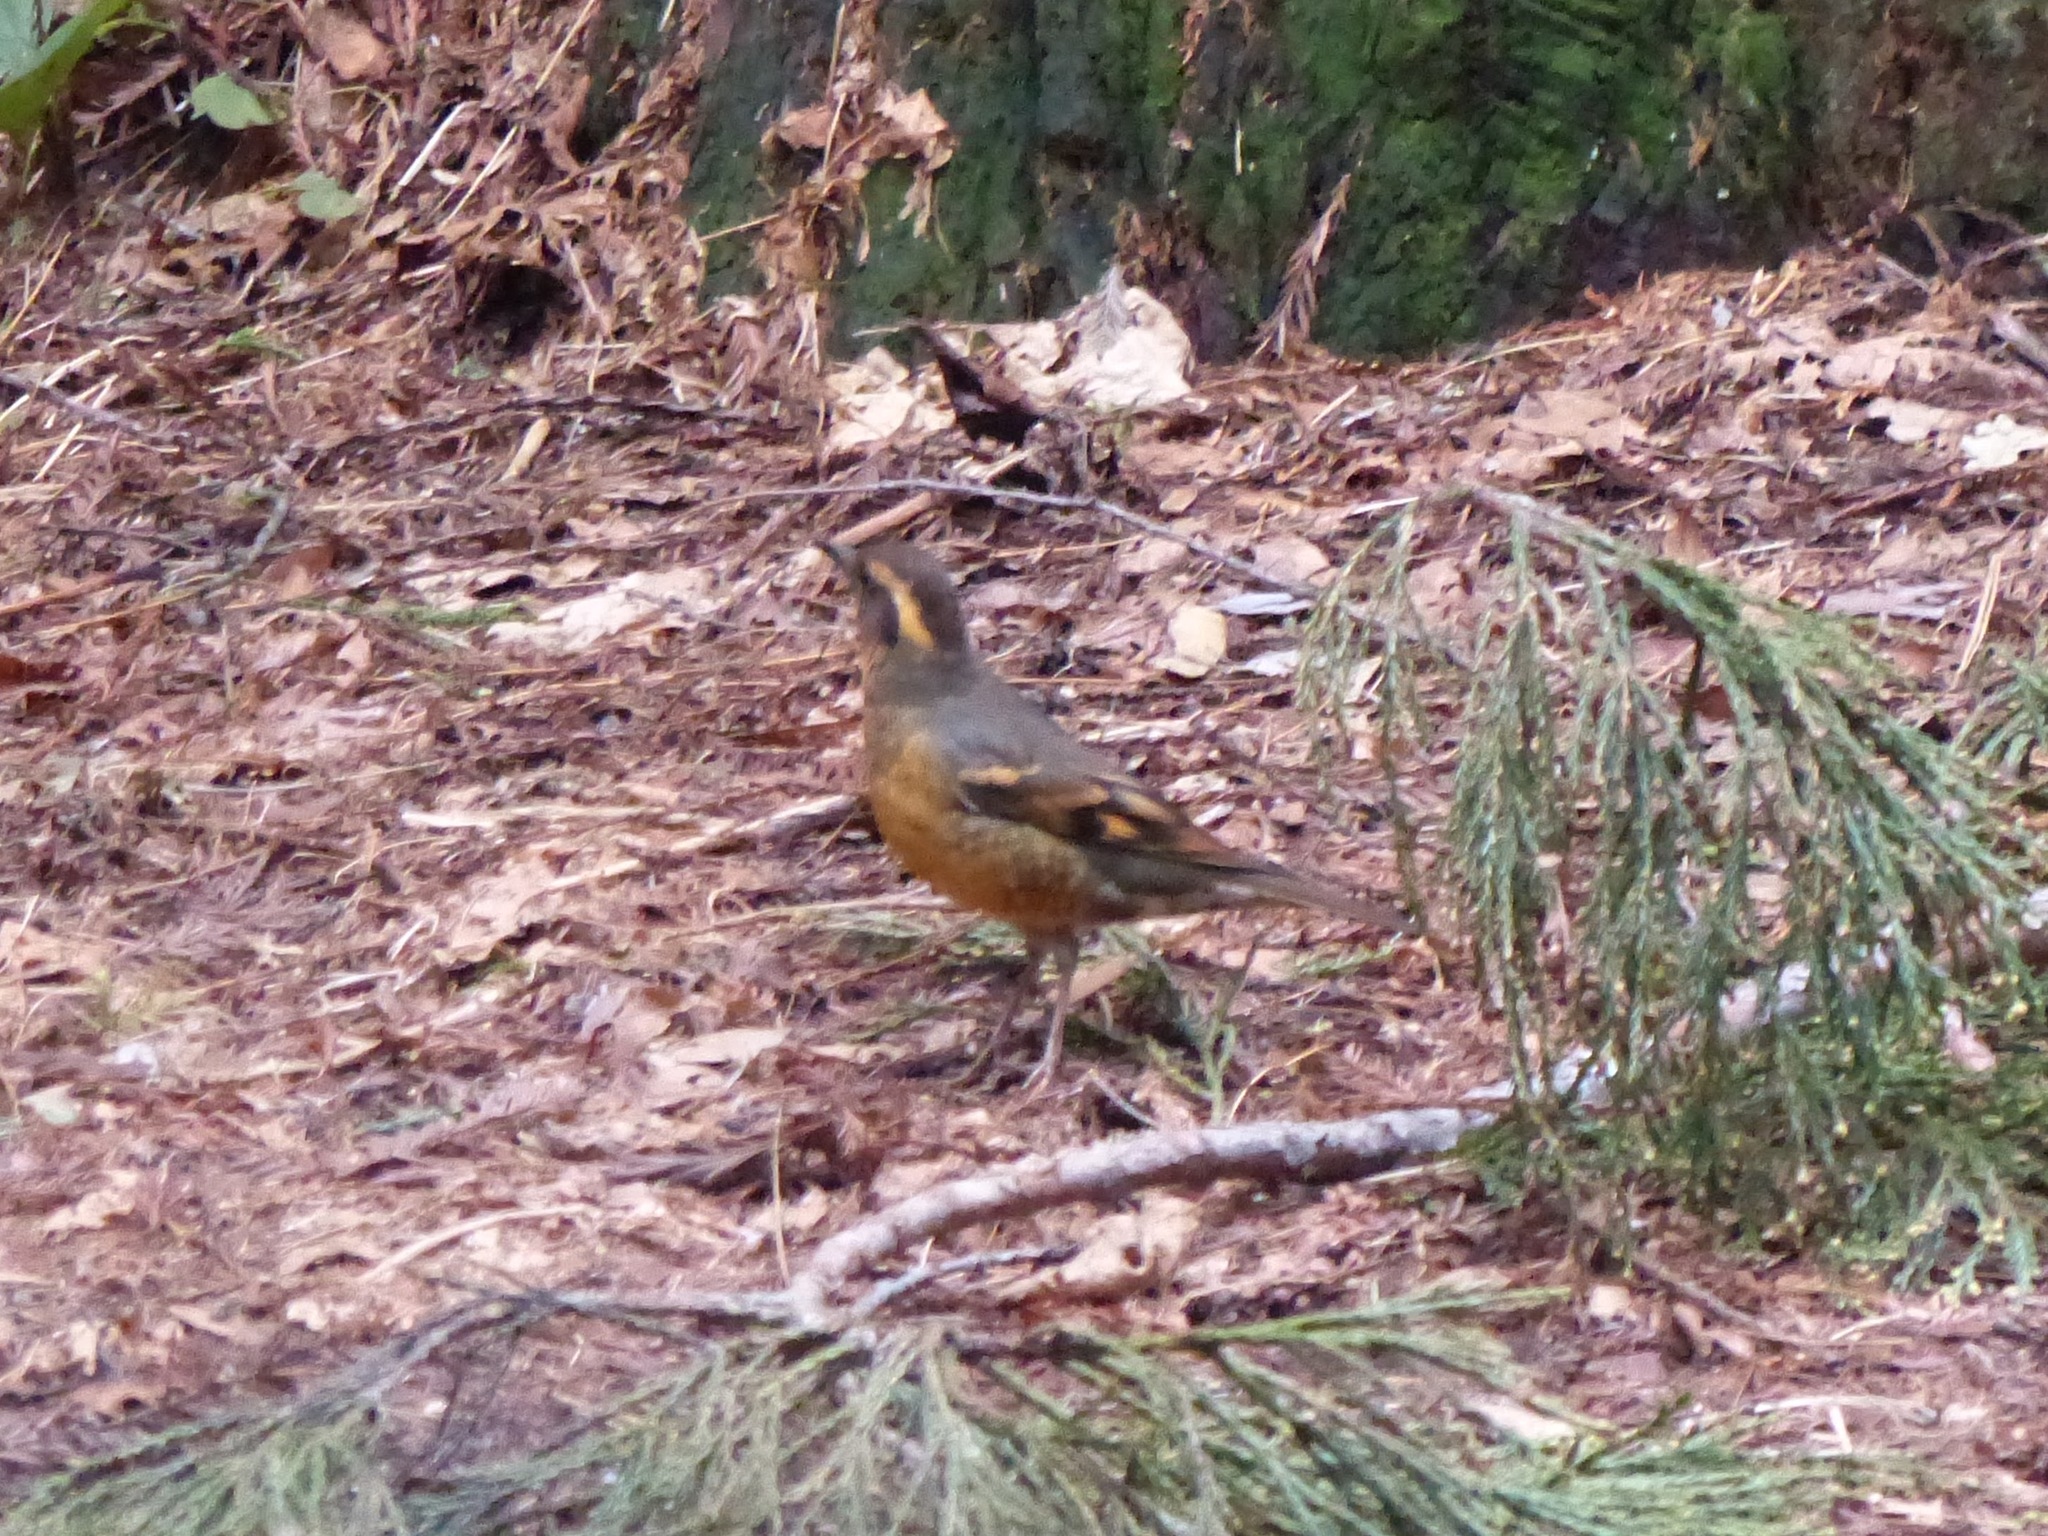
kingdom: Animalia
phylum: Chordata
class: Aves
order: Passeriformes
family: Turdidae
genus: Ixoreus
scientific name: Ixoreus naevius
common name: Varied thrush
